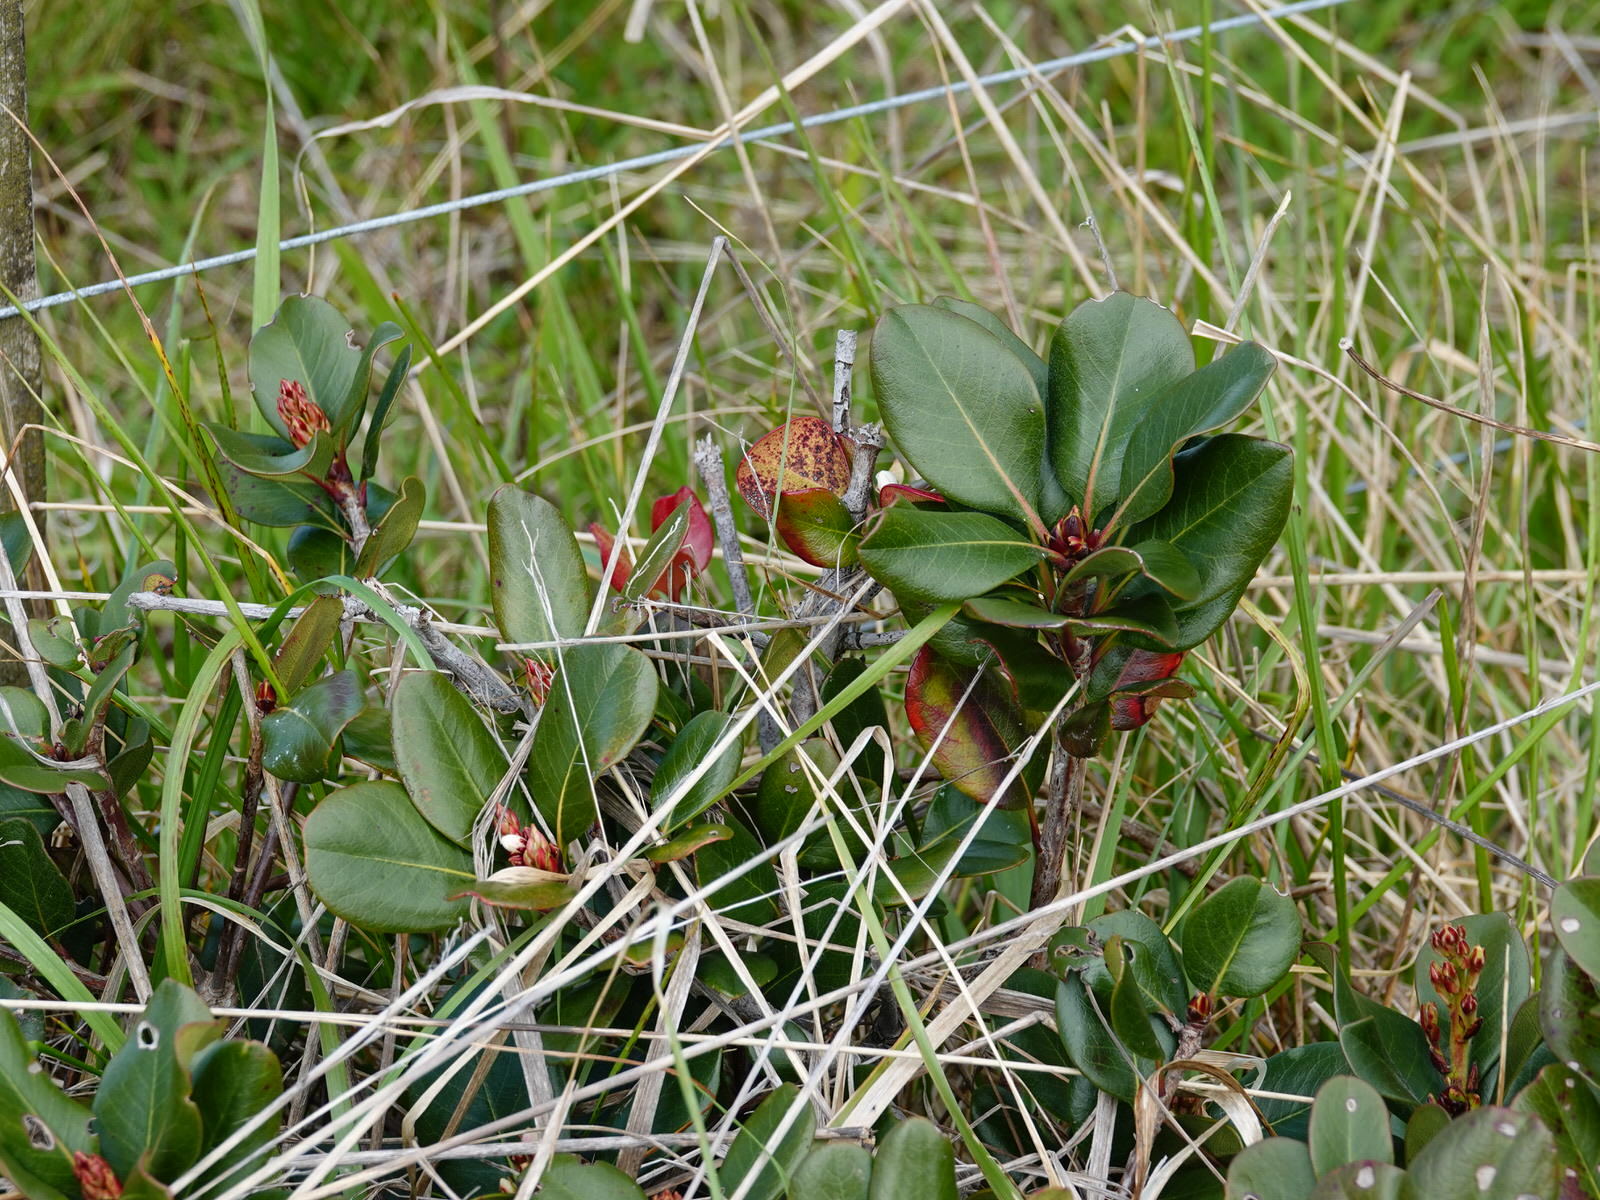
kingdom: Plantae
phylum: Tracheophyta
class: Magnoliopsida
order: Rosales
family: Rosaceae
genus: Rhaphiolepis
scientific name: Rhaphiolepis indica
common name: India-hawthorn
